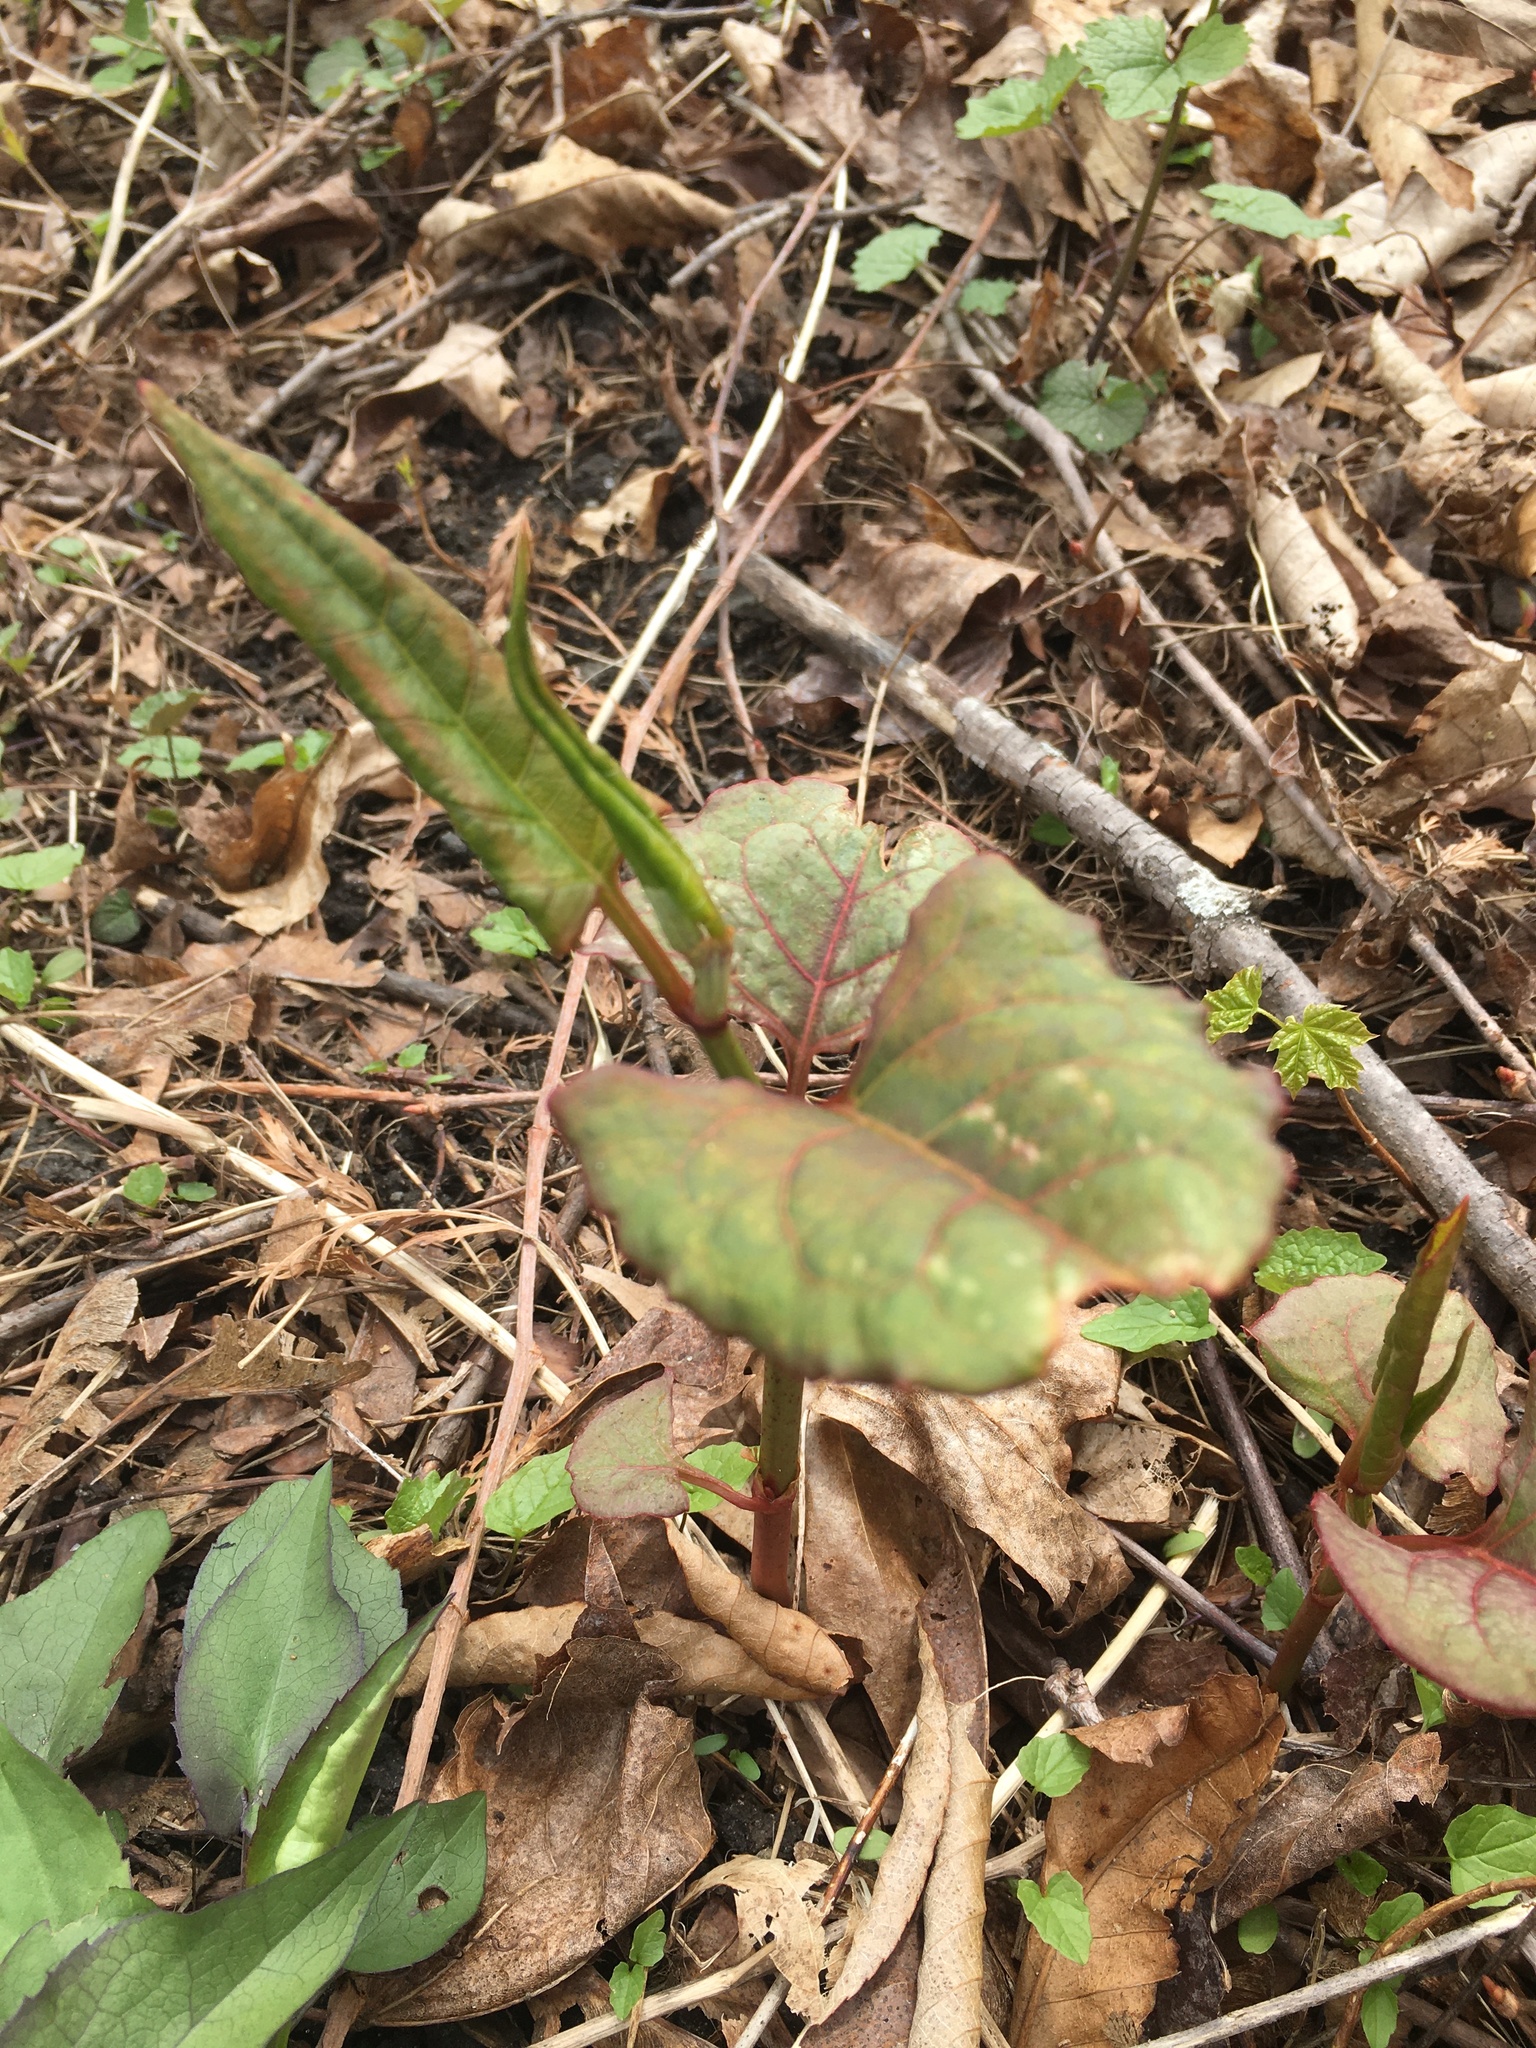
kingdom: Plantae
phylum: Tracheophyta
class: Magnoliopsida
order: Caryophyllales
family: Polygonaceae
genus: Reynoutria
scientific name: Reynoutria japonica
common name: Japanese knotweed
